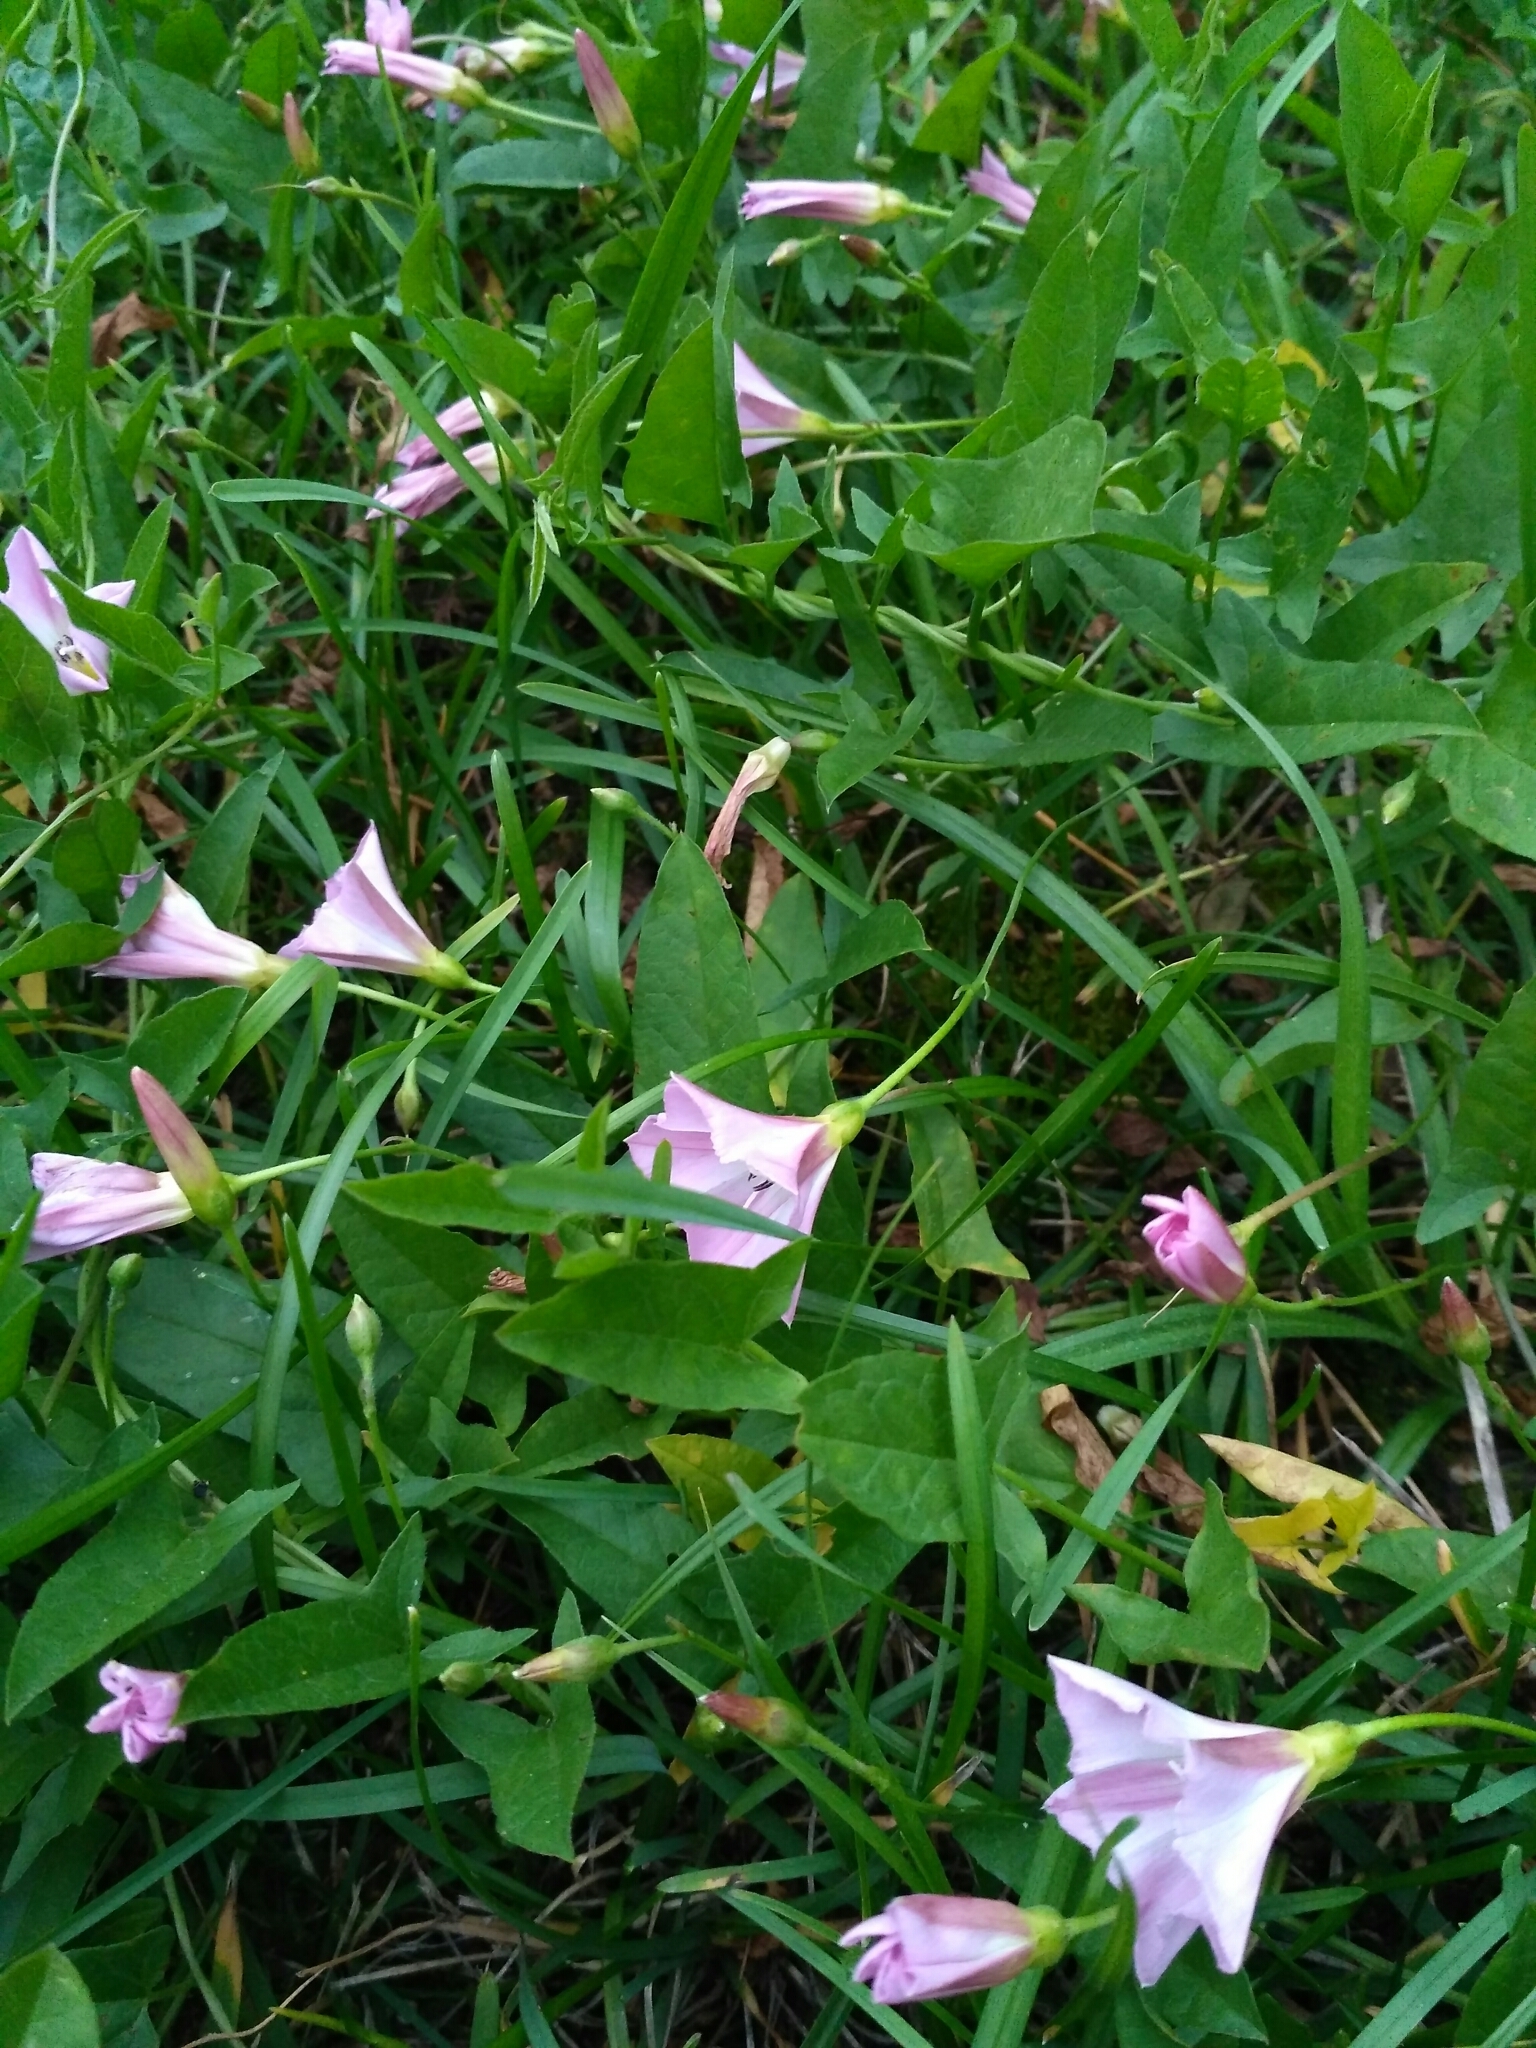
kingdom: Plantae
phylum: Tracheophyta
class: Magnoliopsida
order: Solanales
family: Convolvulaceae
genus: Convolvulus
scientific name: Convolvulus arvensis
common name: Field bindweed
